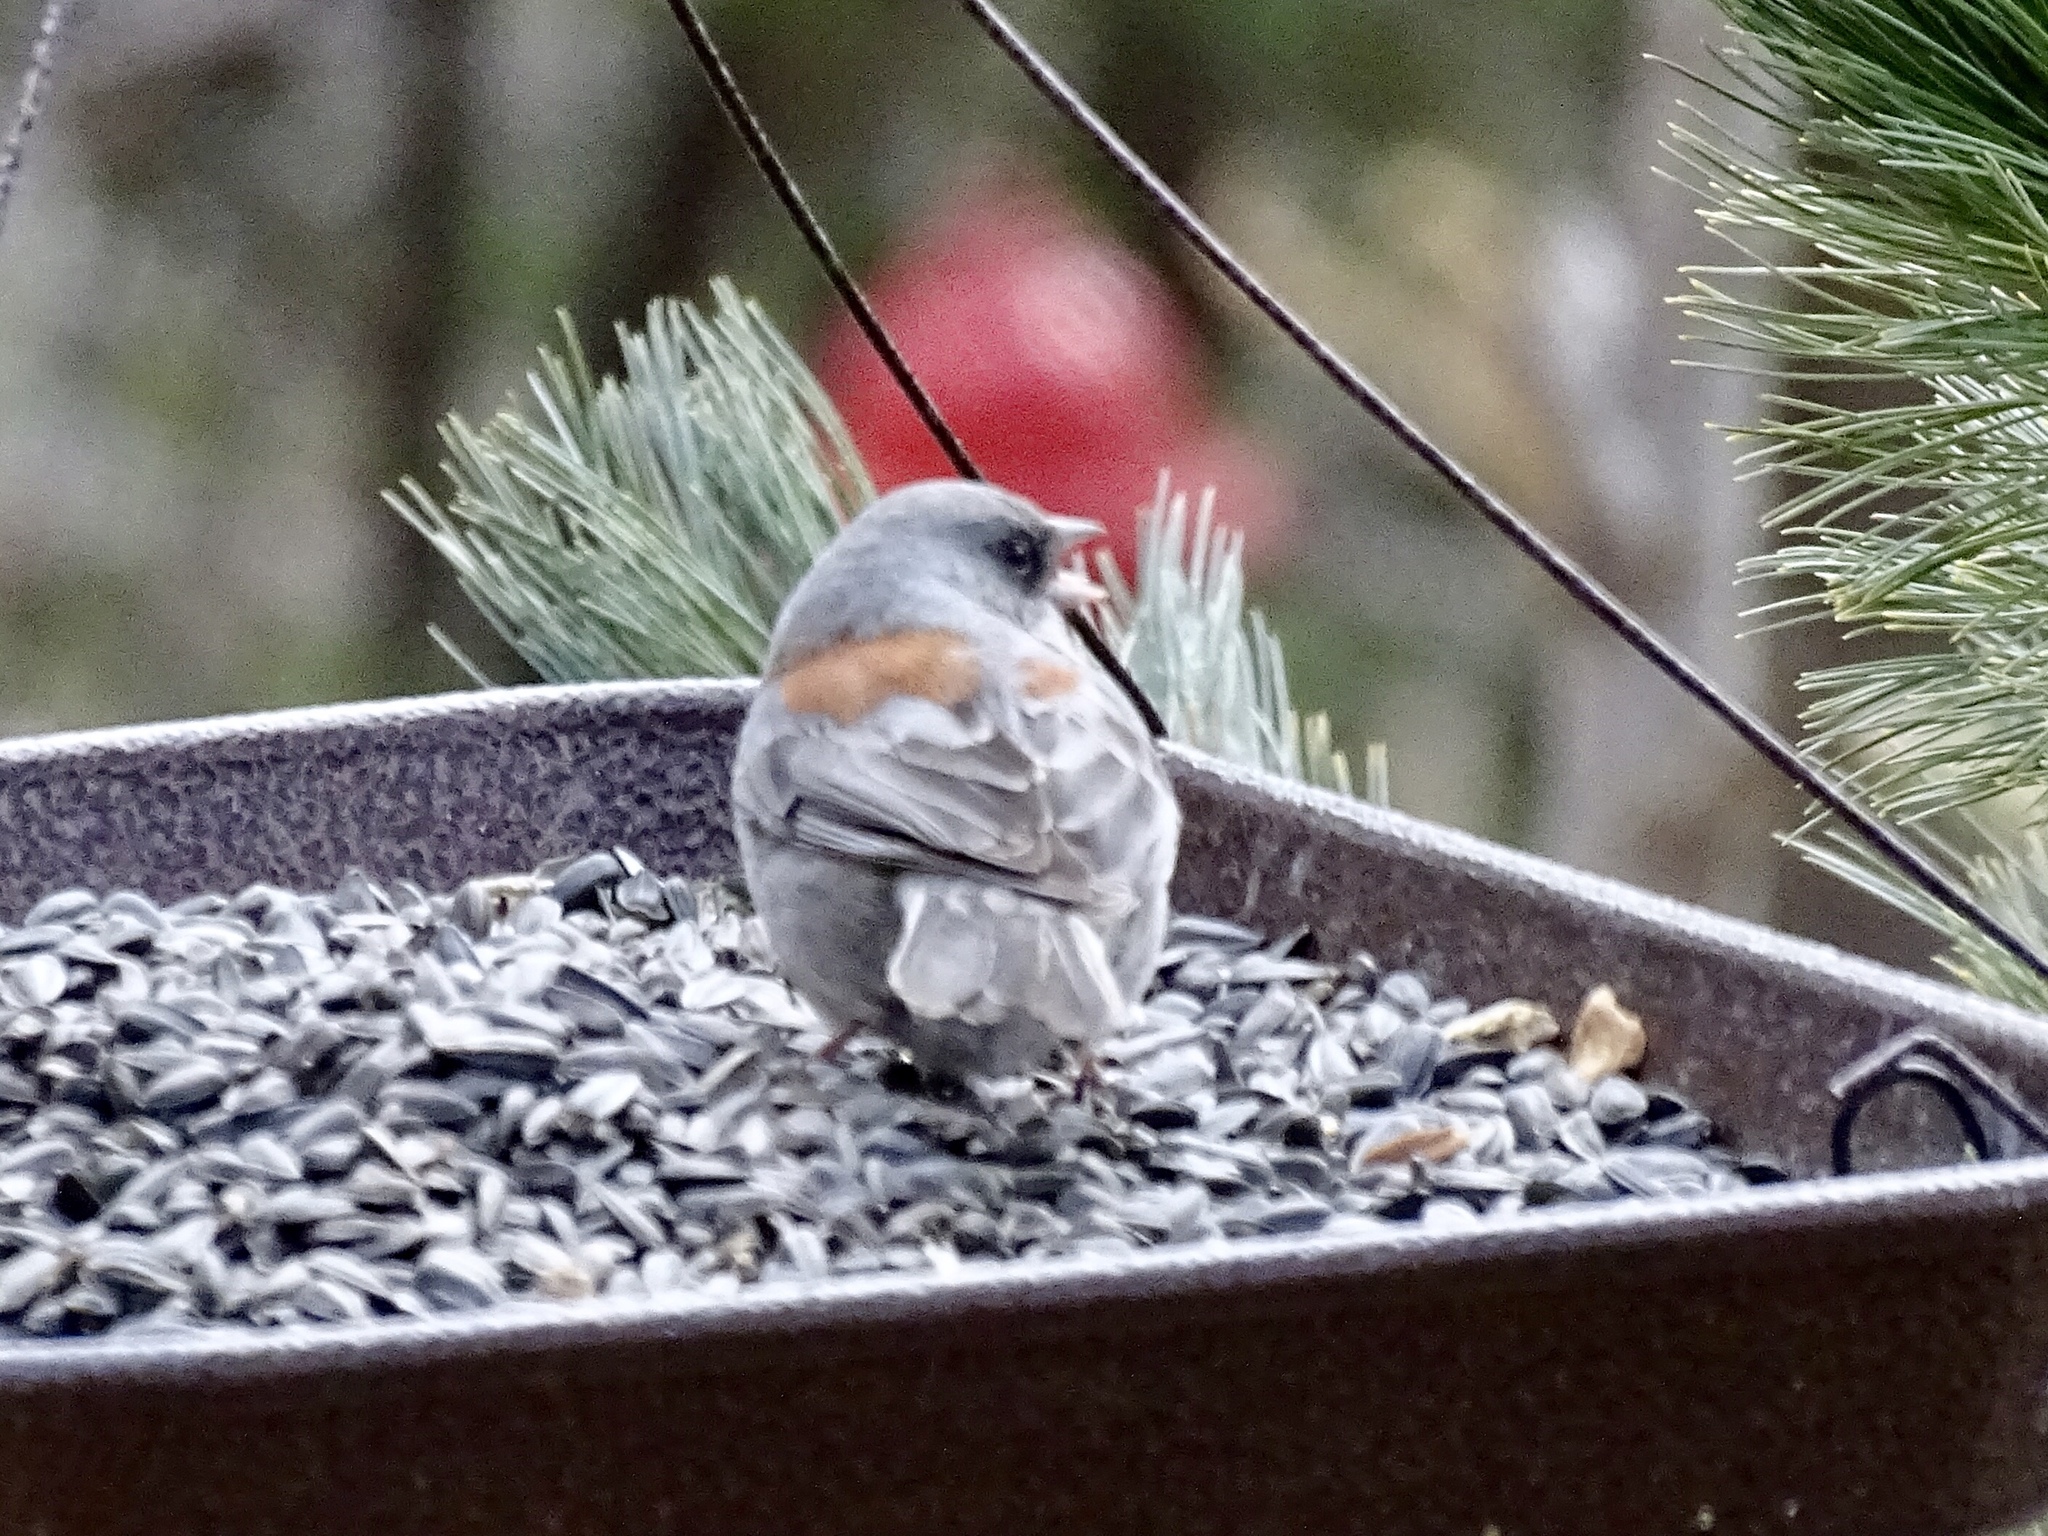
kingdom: Animalia
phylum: Chordata
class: Aves
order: Passeriformes
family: Passerellidae
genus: Junco
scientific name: Junco hyemalis
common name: Dark-eyed junco
